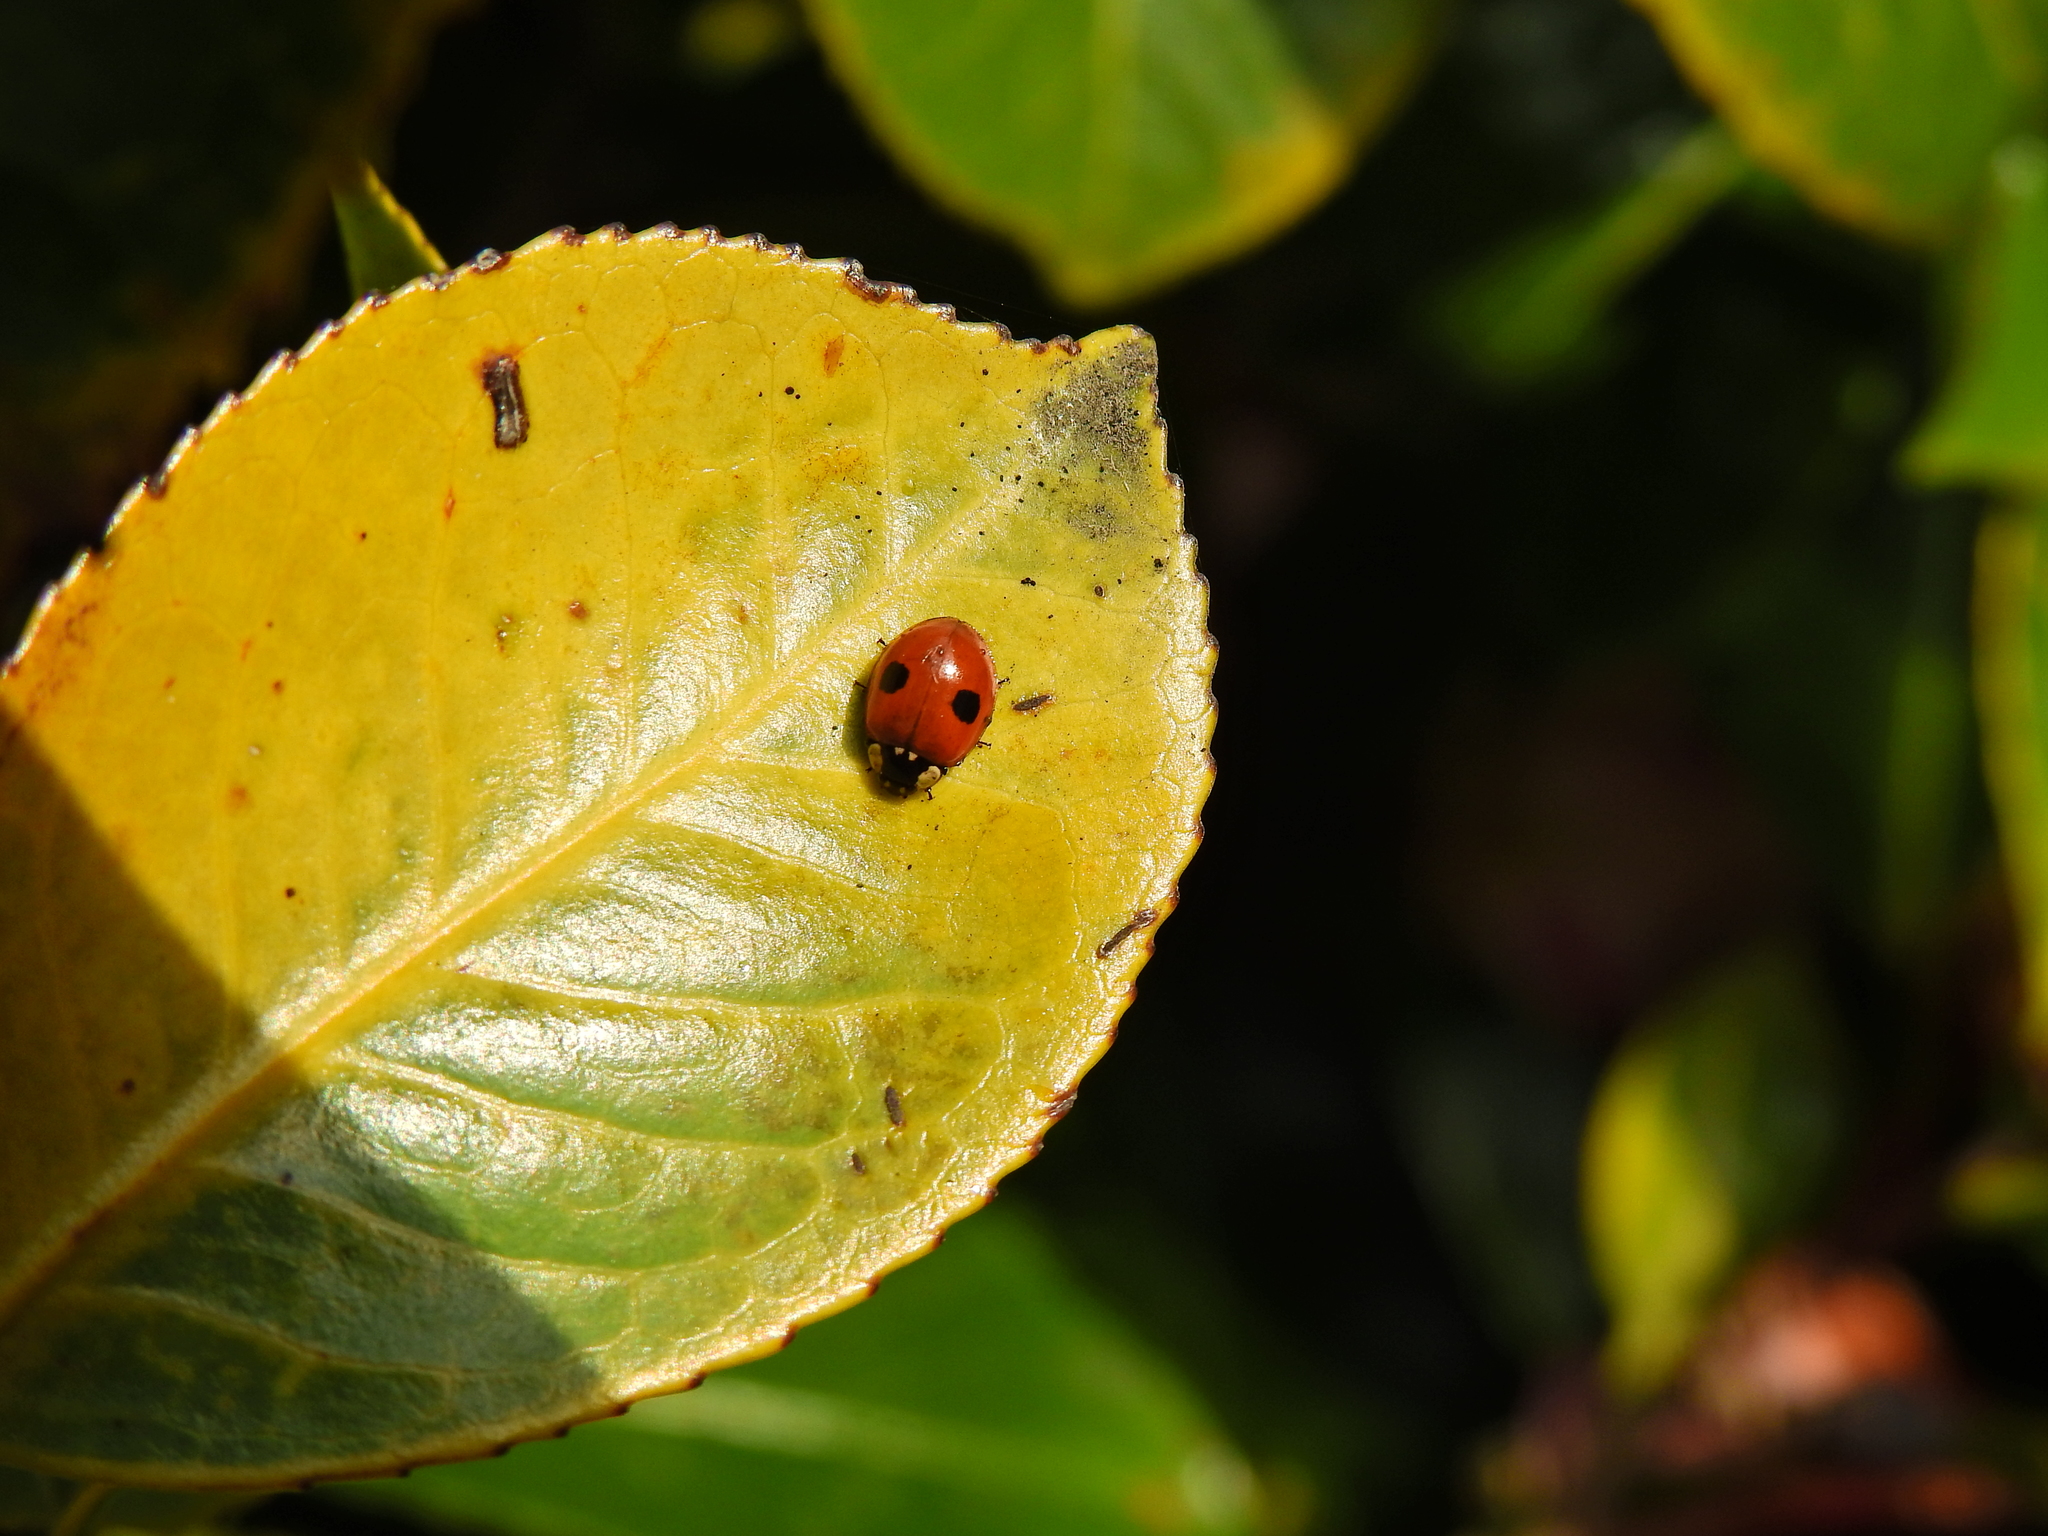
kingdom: Animalia
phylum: Arthropoda
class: Insecta
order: Coleoptera
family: Coccinellidae
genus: Adalia
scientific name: Adalia bipunctata
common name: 2-spot ladybird
